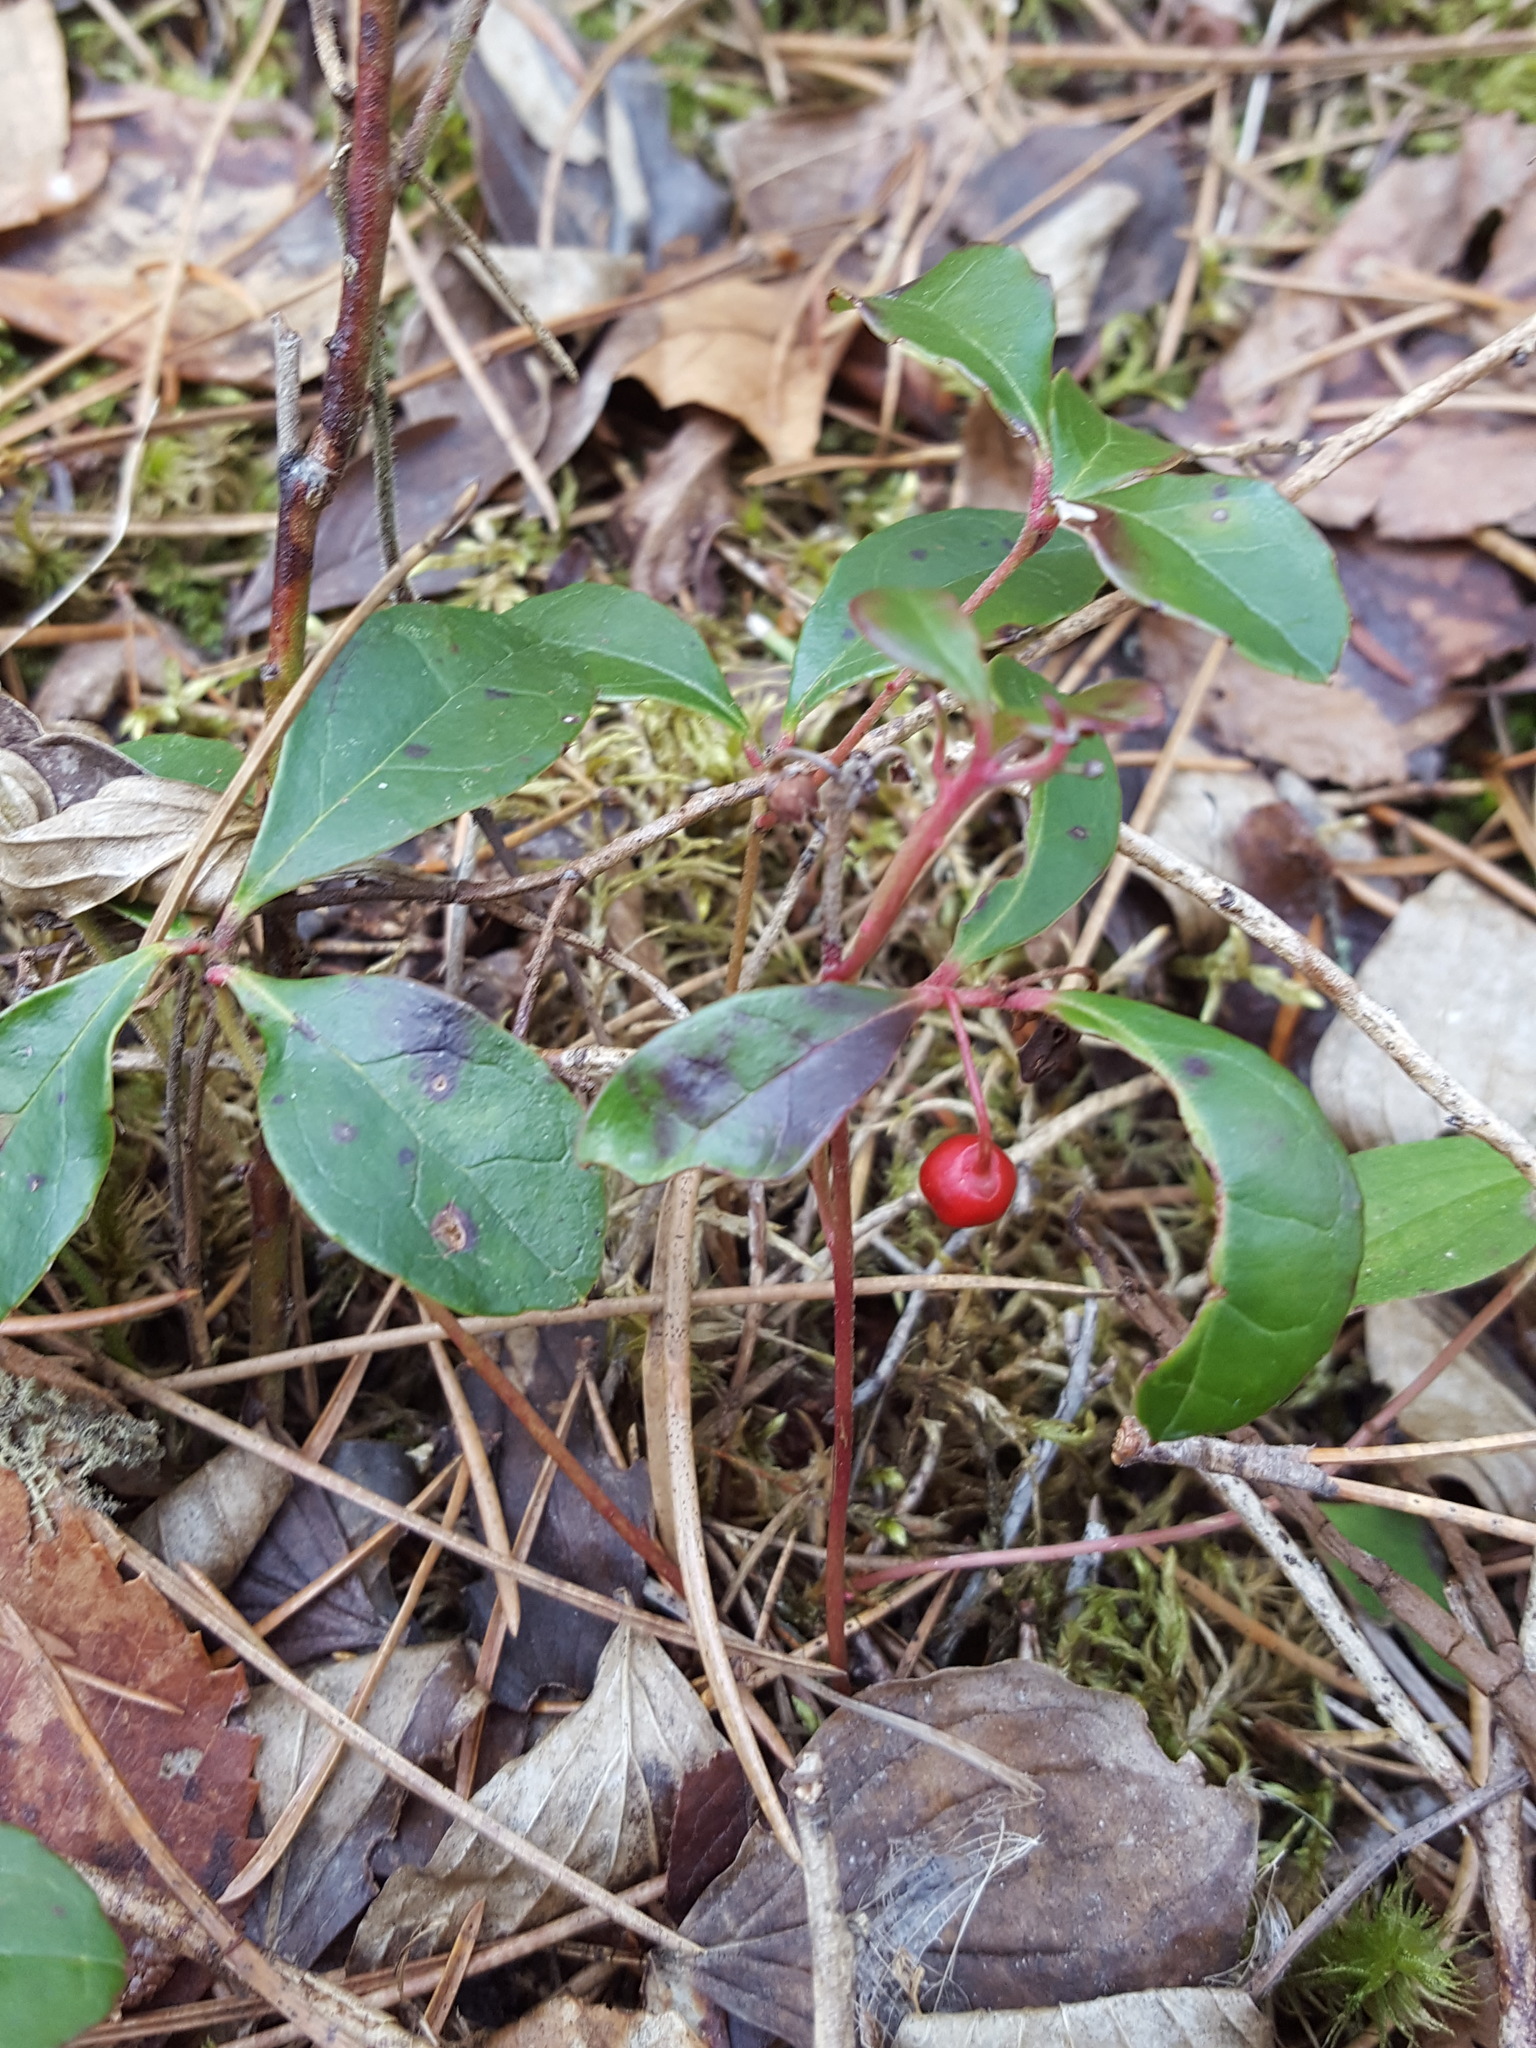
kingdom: Plantae
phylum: Tracheophyta
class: Magnoliopsida
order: Ericales
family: Ericaceae
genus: Gaultheria
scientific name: Gaultheria procumbens
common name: Checkerberry
